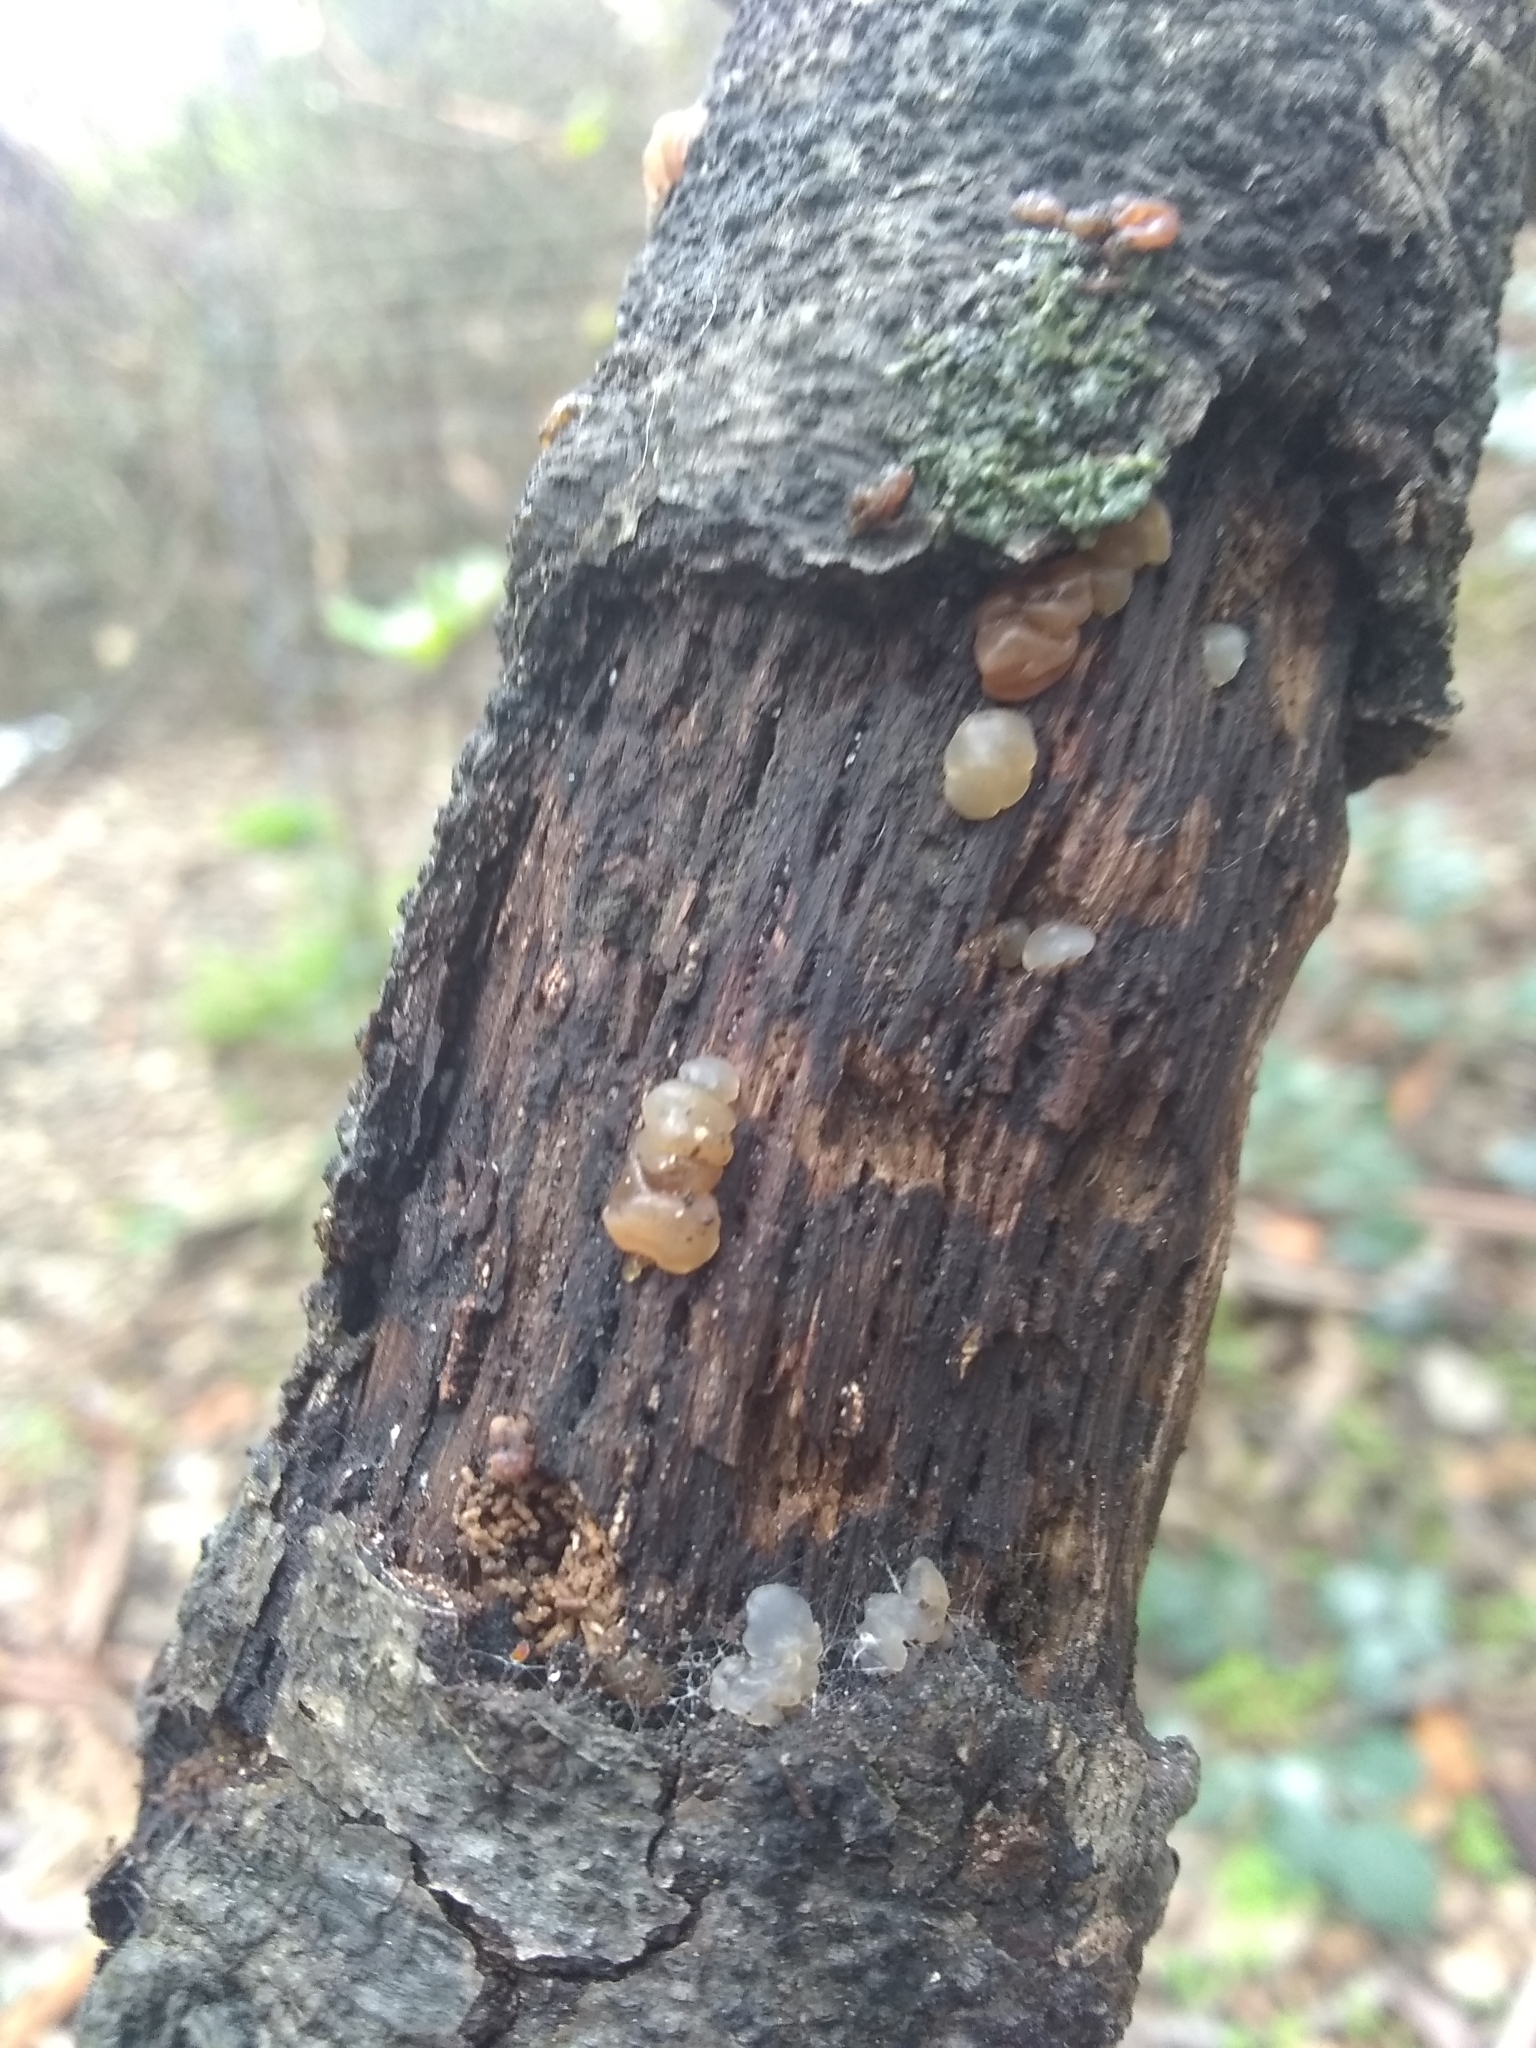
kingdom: Fungi
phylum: Basidiomycota
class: Agaricomycetes
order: Auriculariales
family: Hyaloriaceae
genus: Myxarium
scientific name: Myxarium nucleatum
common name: Crystal brain fungus
